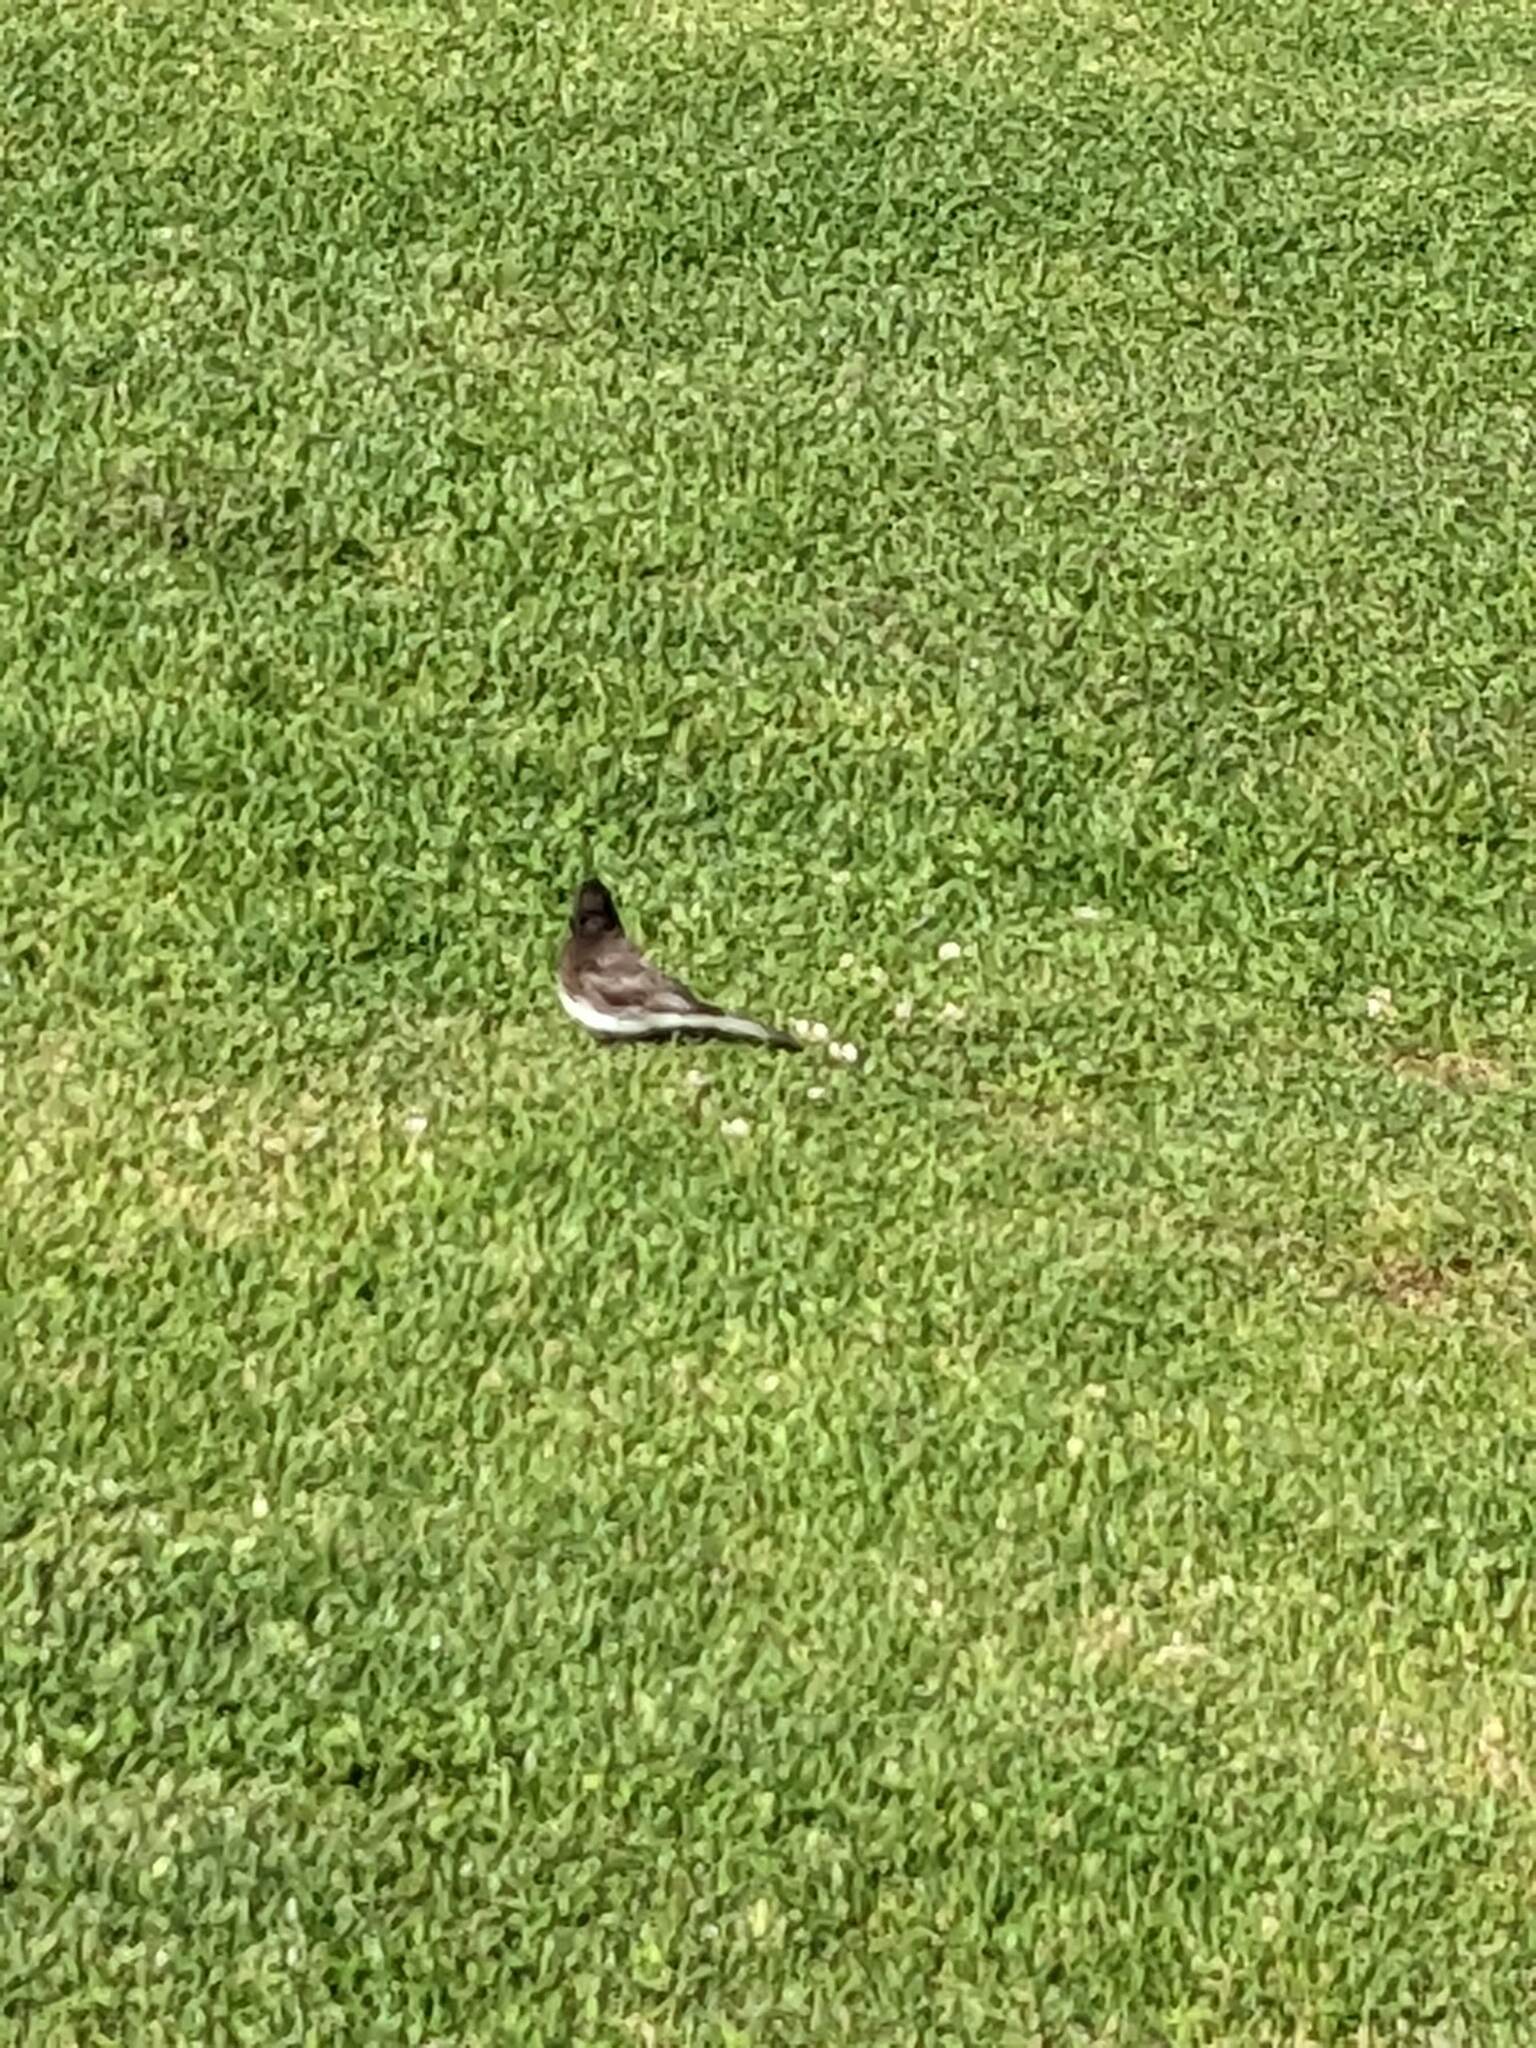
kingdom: Animalia
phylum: Chordata
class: Aves
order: Passeriformes
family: Tyrannidae
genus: Sayornis
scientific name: Sayornis nigricans
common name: Black phoebe
